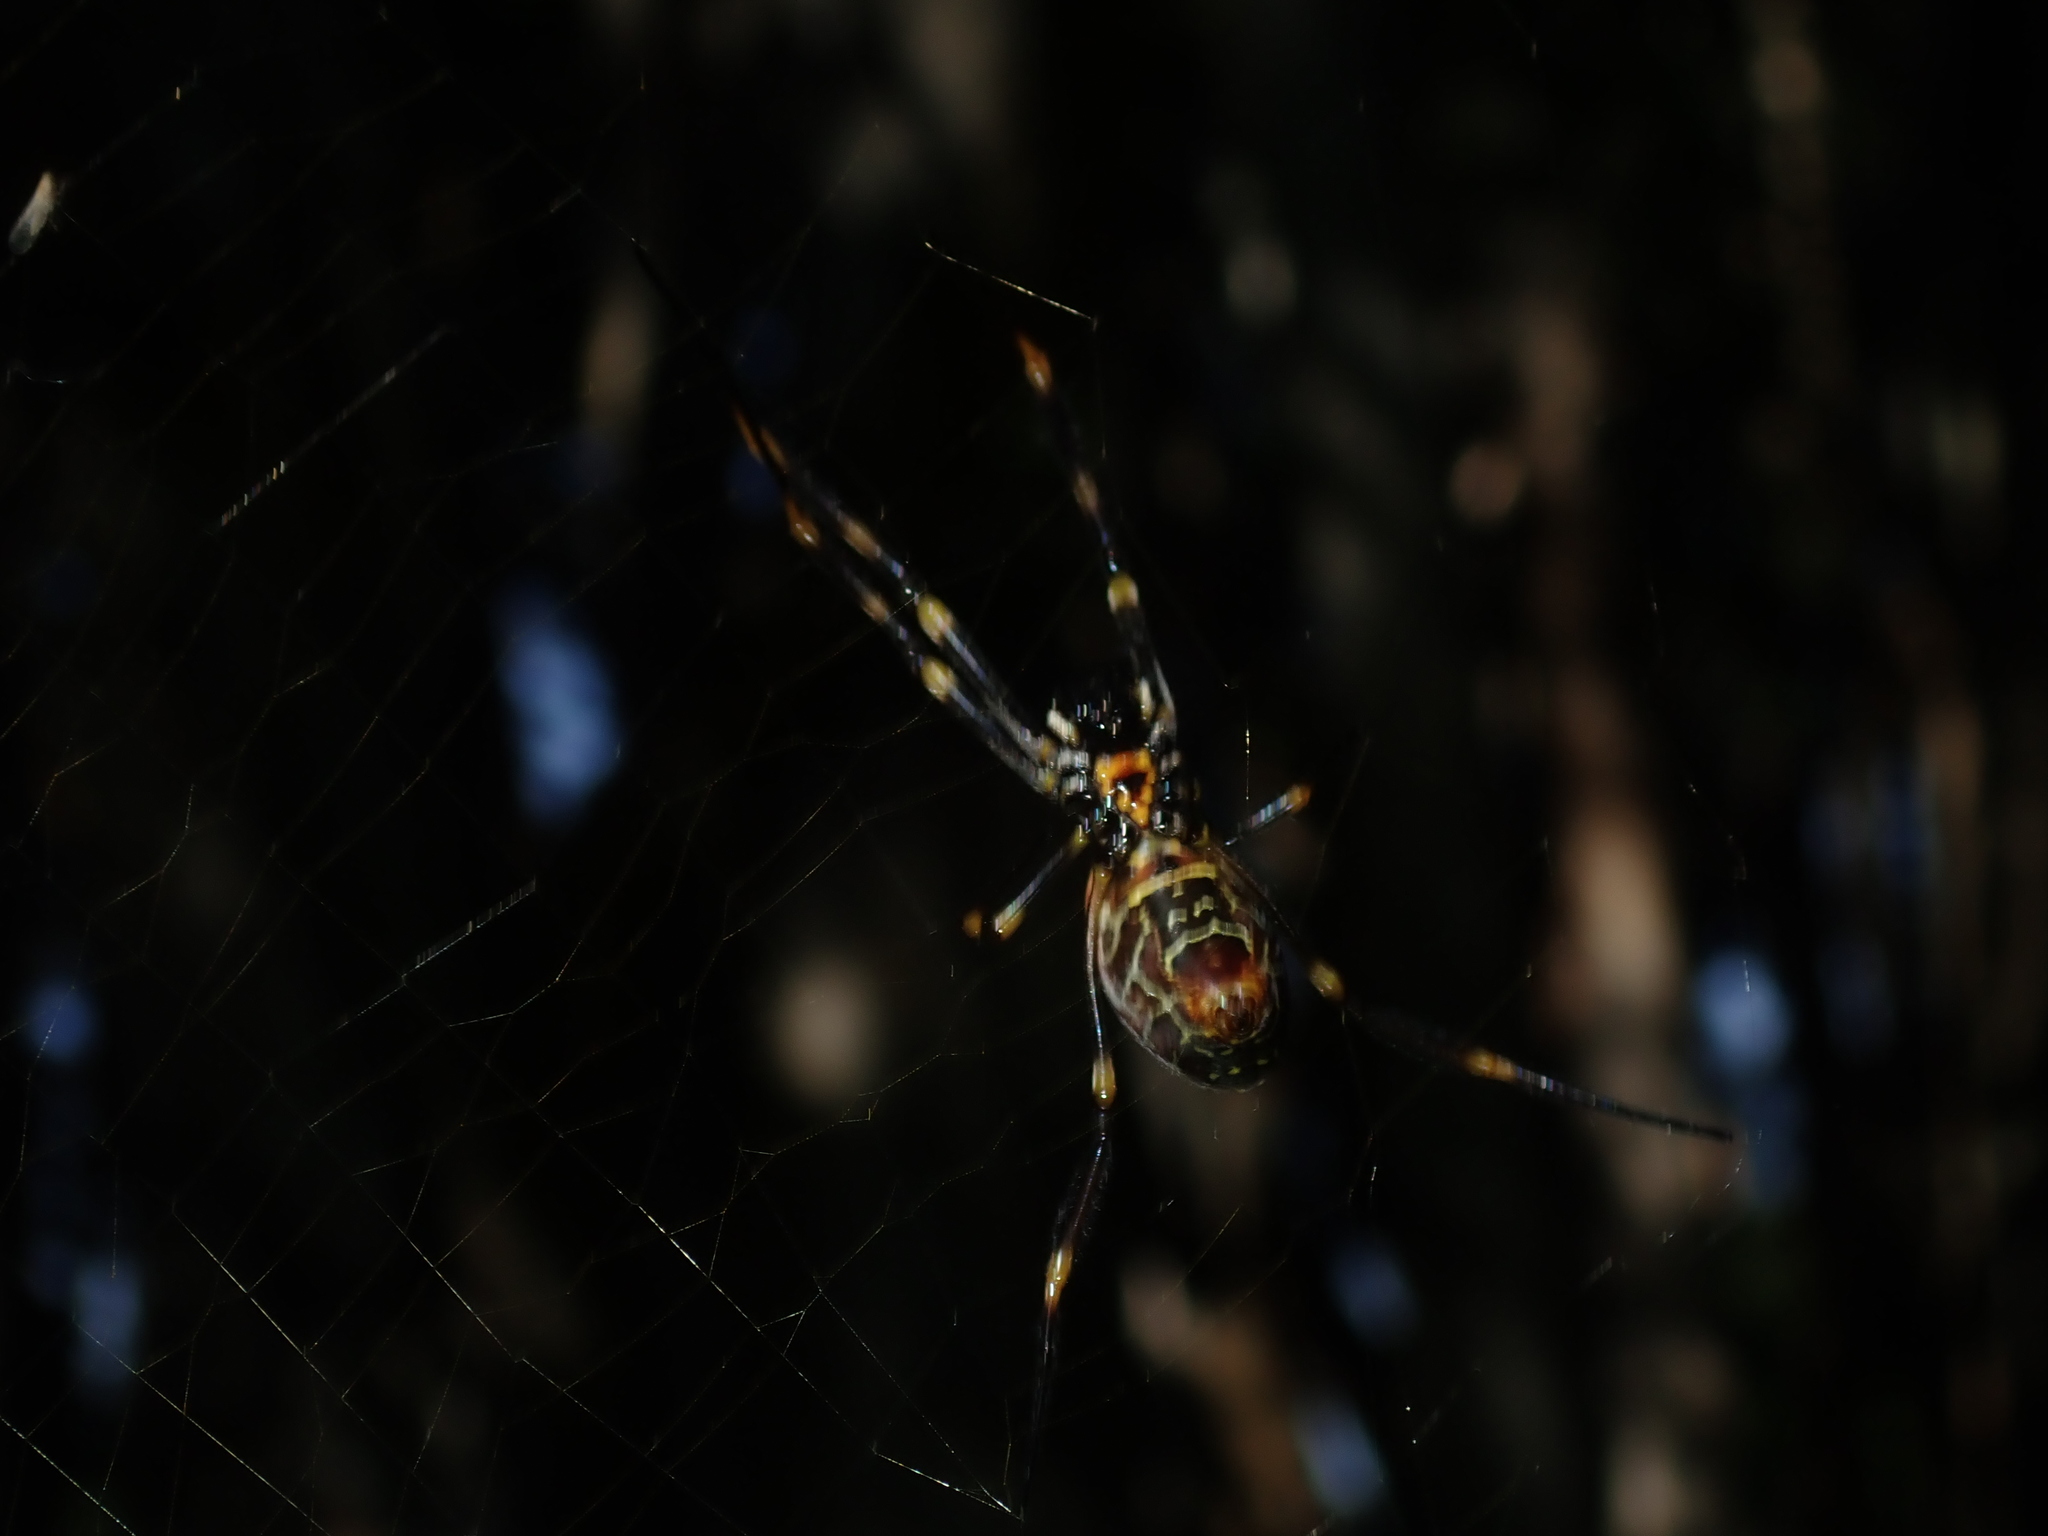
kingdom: Animalia
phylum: Arthropoda
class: Arachnida
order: Araneae
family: Araneidae
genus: Trichonephila
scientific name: Trichonephila plumipes
